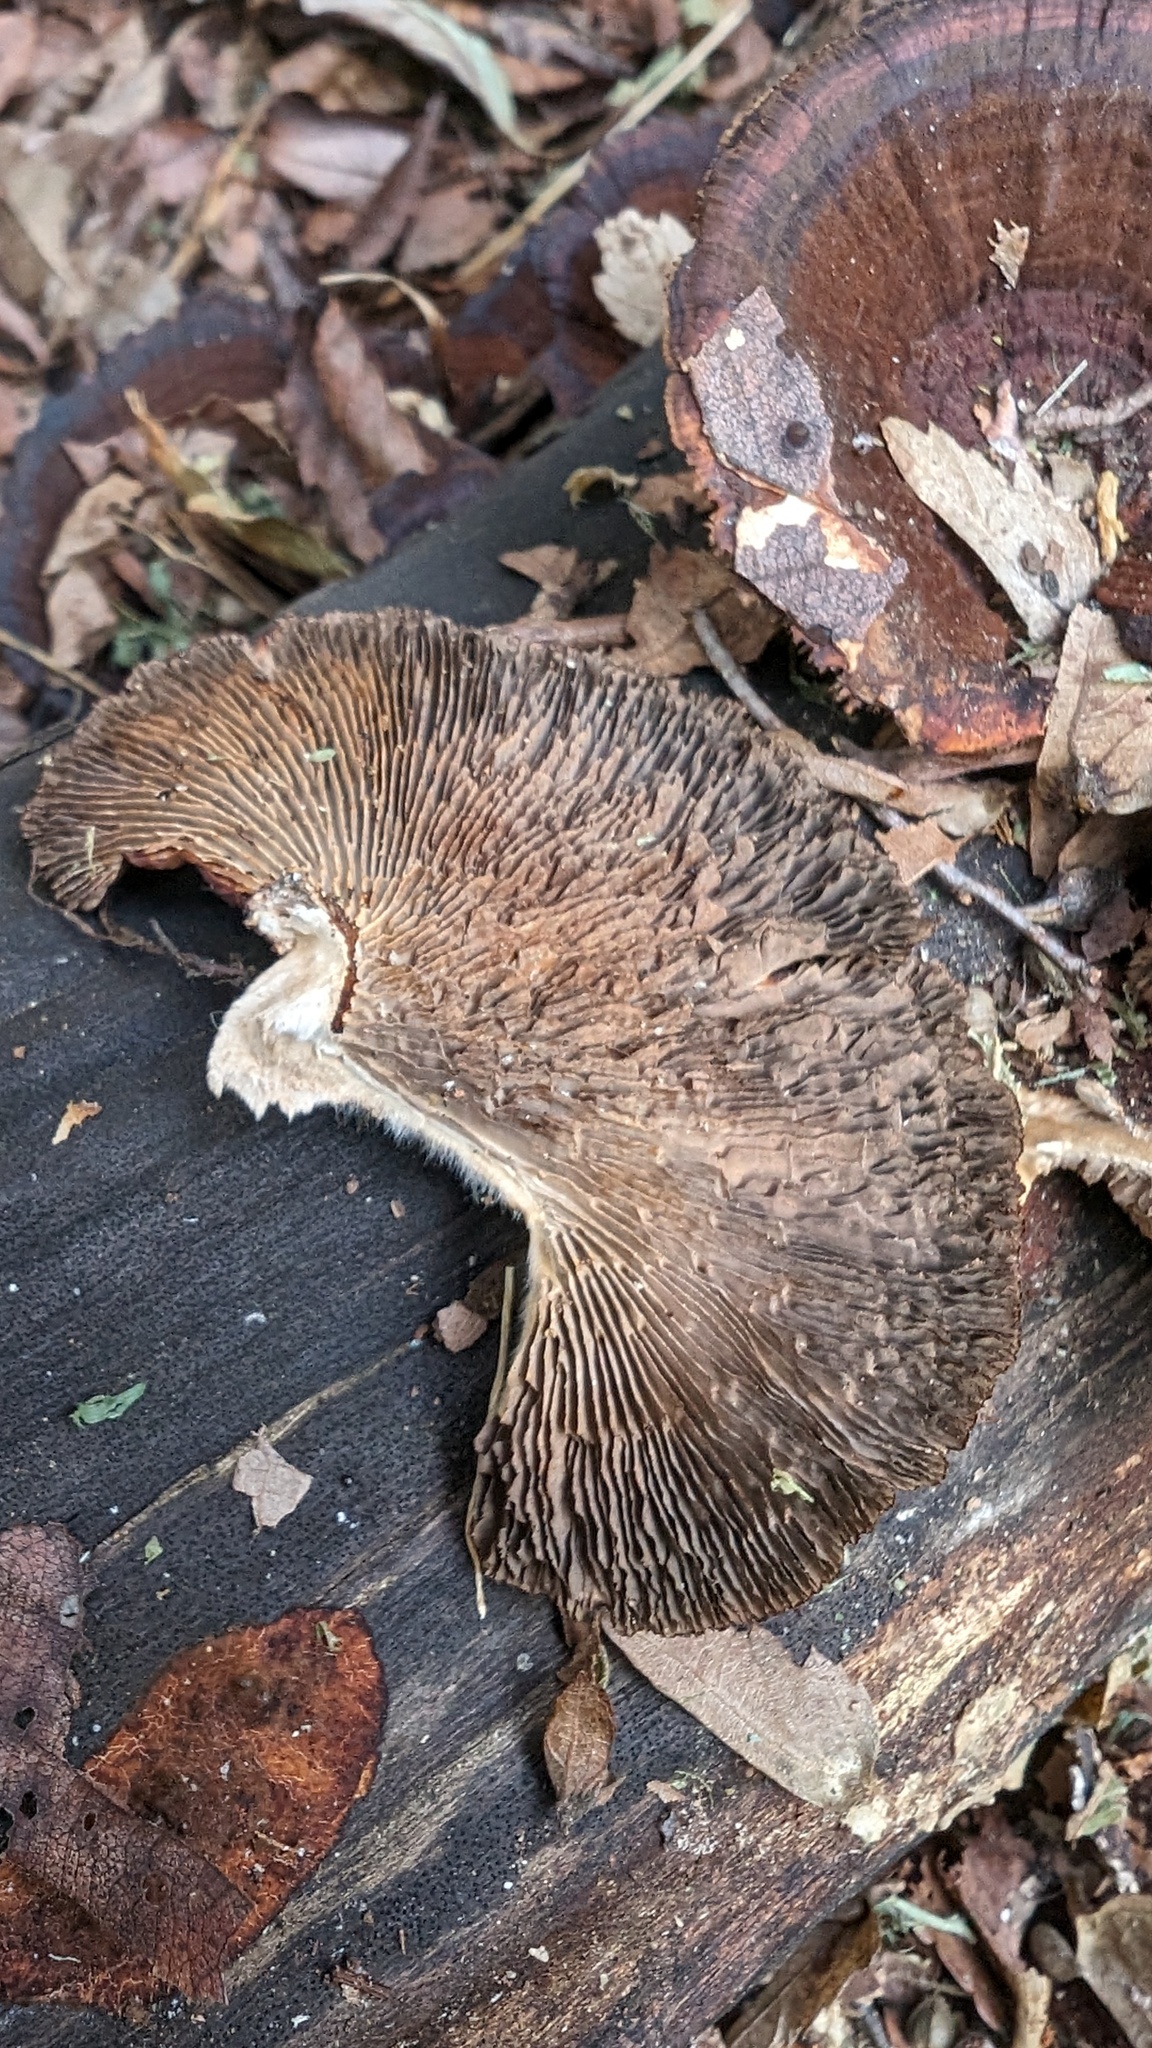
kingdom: Fungi
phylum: Basidiomycota
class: Agaricomycetes
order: Polyporales
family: Polyporaceae
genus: Daedaleopsis
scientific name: Daedaleopsis tricolor
